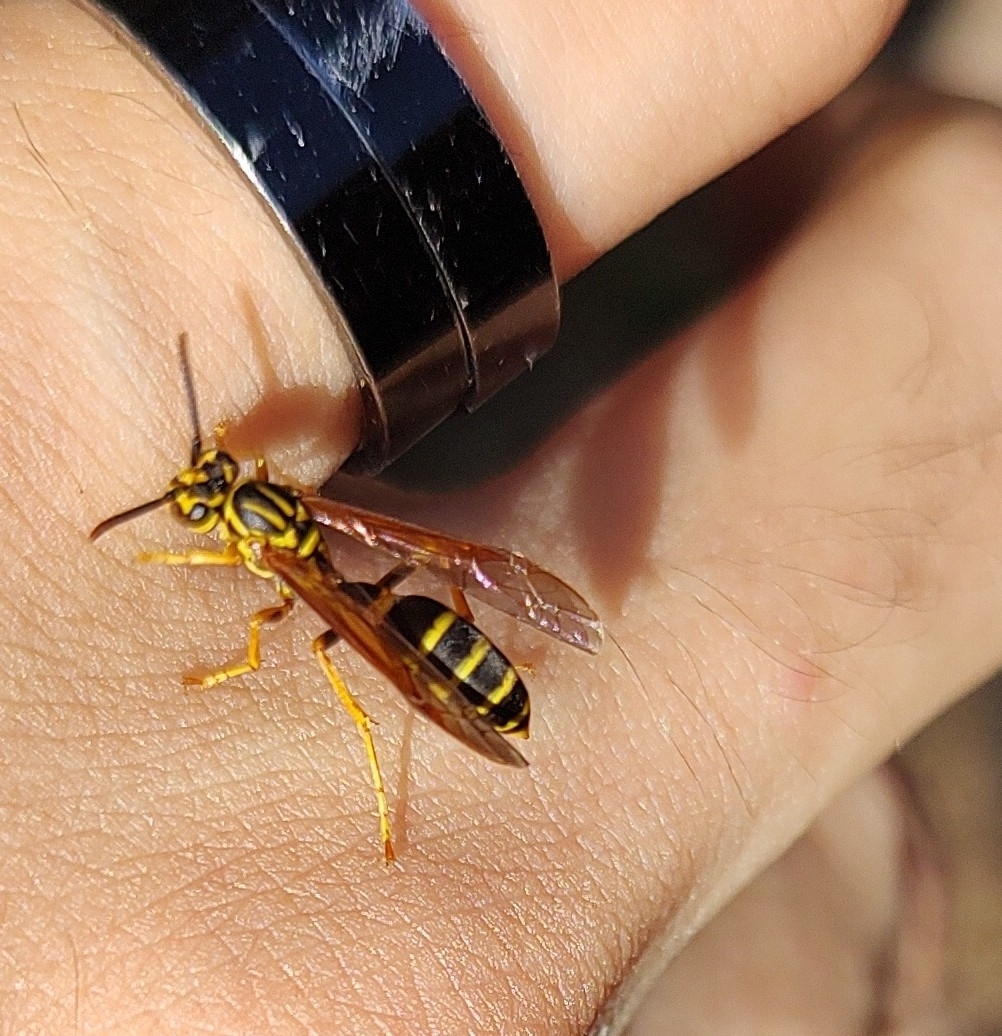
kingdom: Animalia
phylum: Arthropoda
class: Insecta
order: Hymenoptera
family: Vespidae
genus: Agelaia
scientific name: Agelaia multipicta
